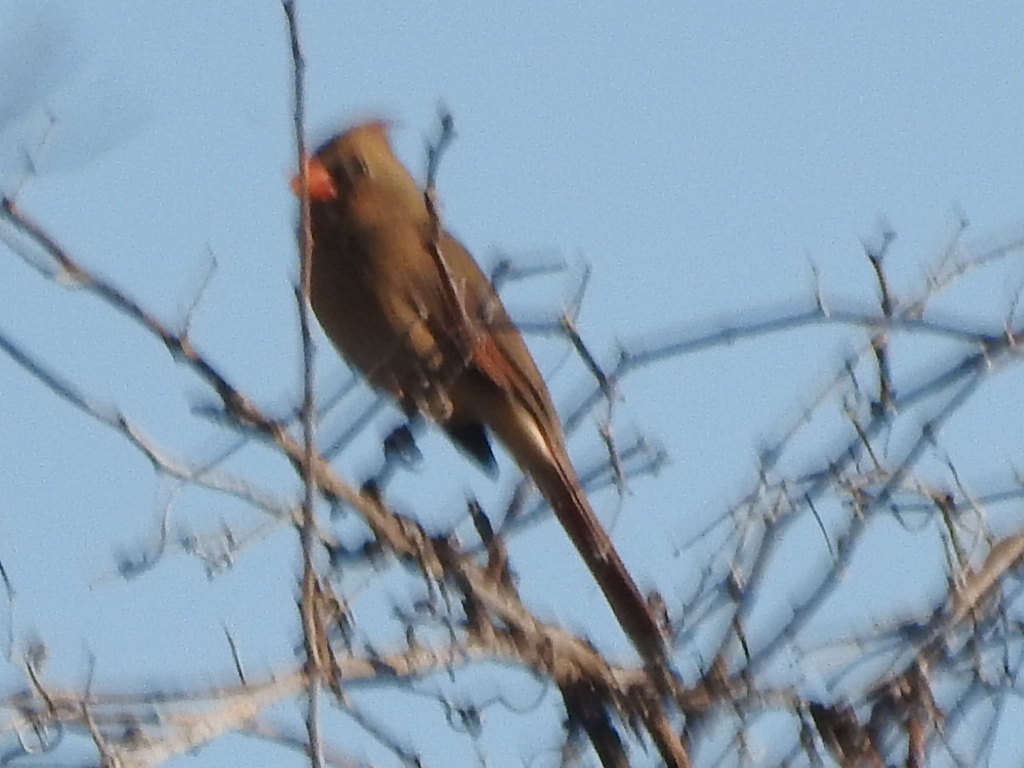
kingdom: Animalia
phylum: Chordata
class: Aves
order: Passeriformes
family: Cardinalidae
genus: Cardinalis
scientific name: Cardinalis cardinalis
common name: Northern cardinal
